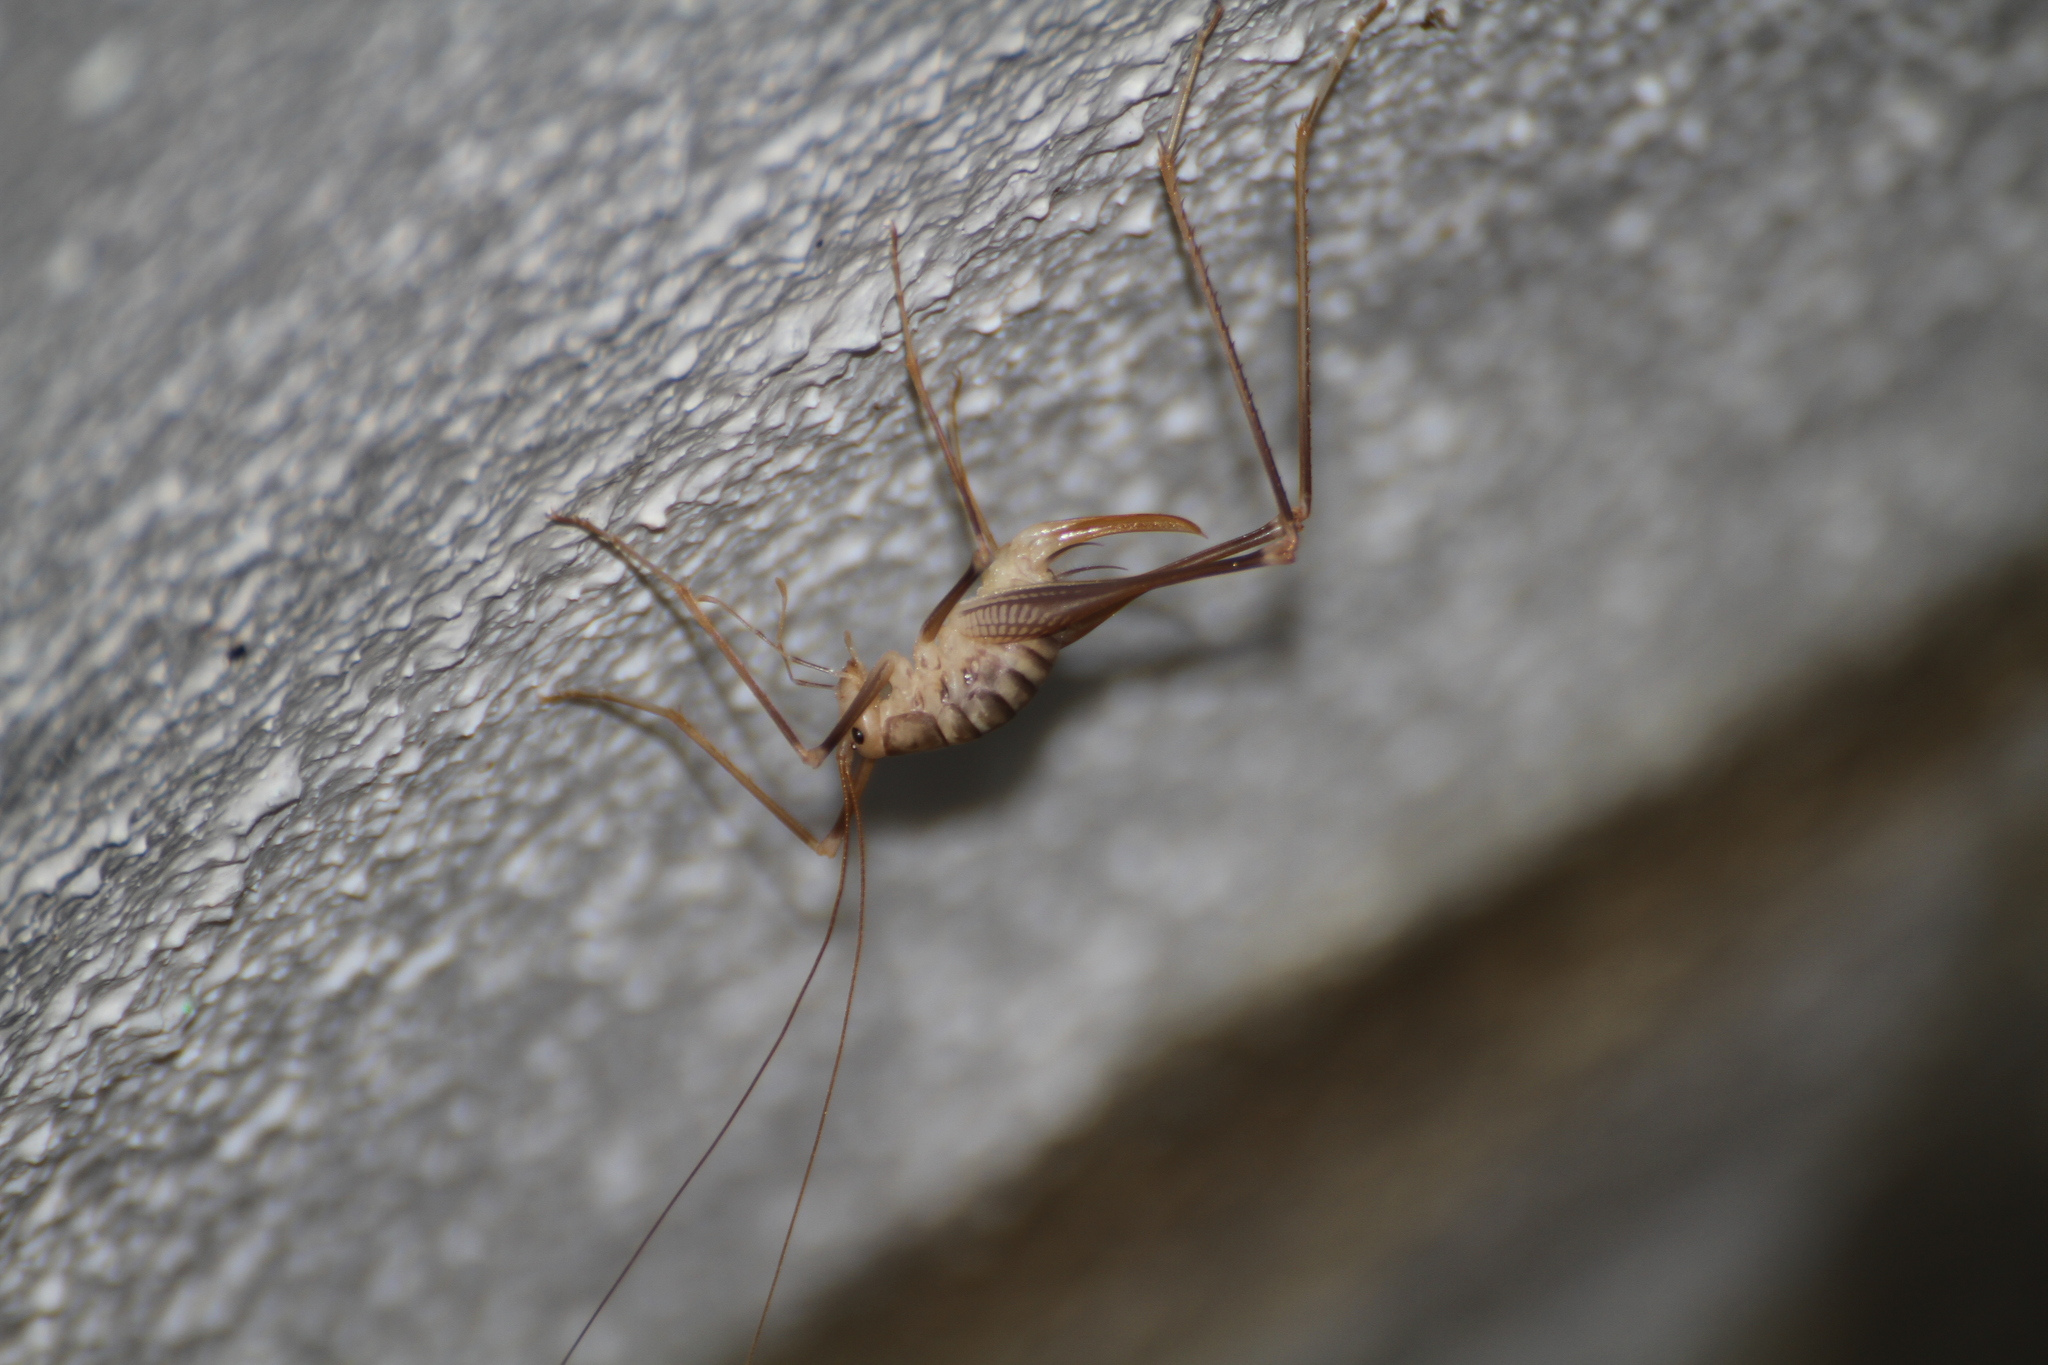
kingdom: Animalia
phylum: Arthropoda
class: Insecta
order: Orthoptera
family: Rhaphidophoridae
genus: Dolichopoda
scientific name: Dolichopoda azami
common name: Azam's cave-cricket
